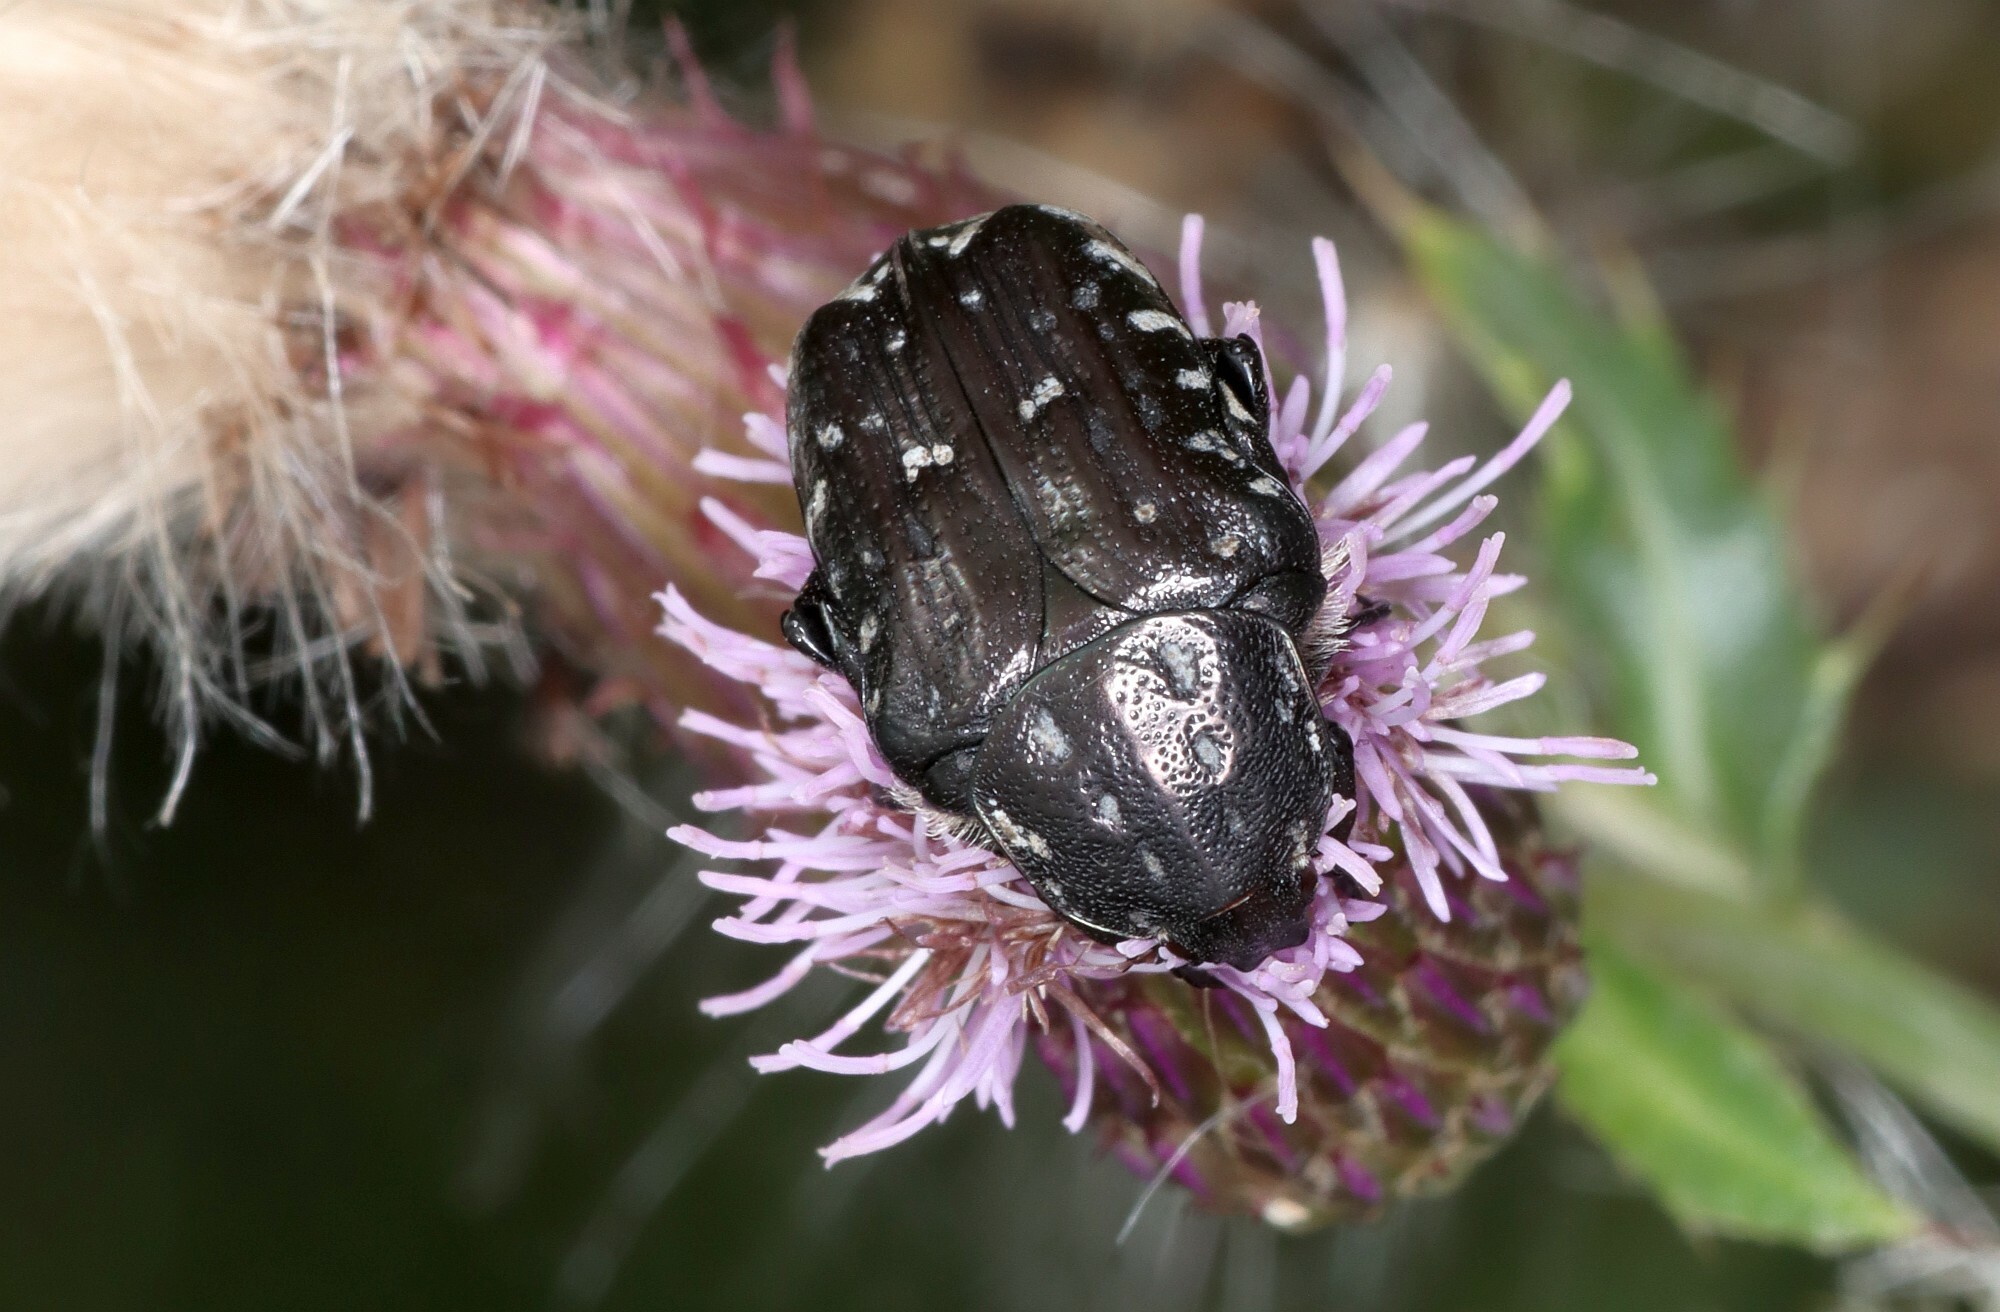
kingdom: Animalia
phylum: Arthropoda
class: Insecta
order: Coleoptera
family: Scarabaeidae
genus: Oxythyrea
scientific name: Oxythyrea funesta
